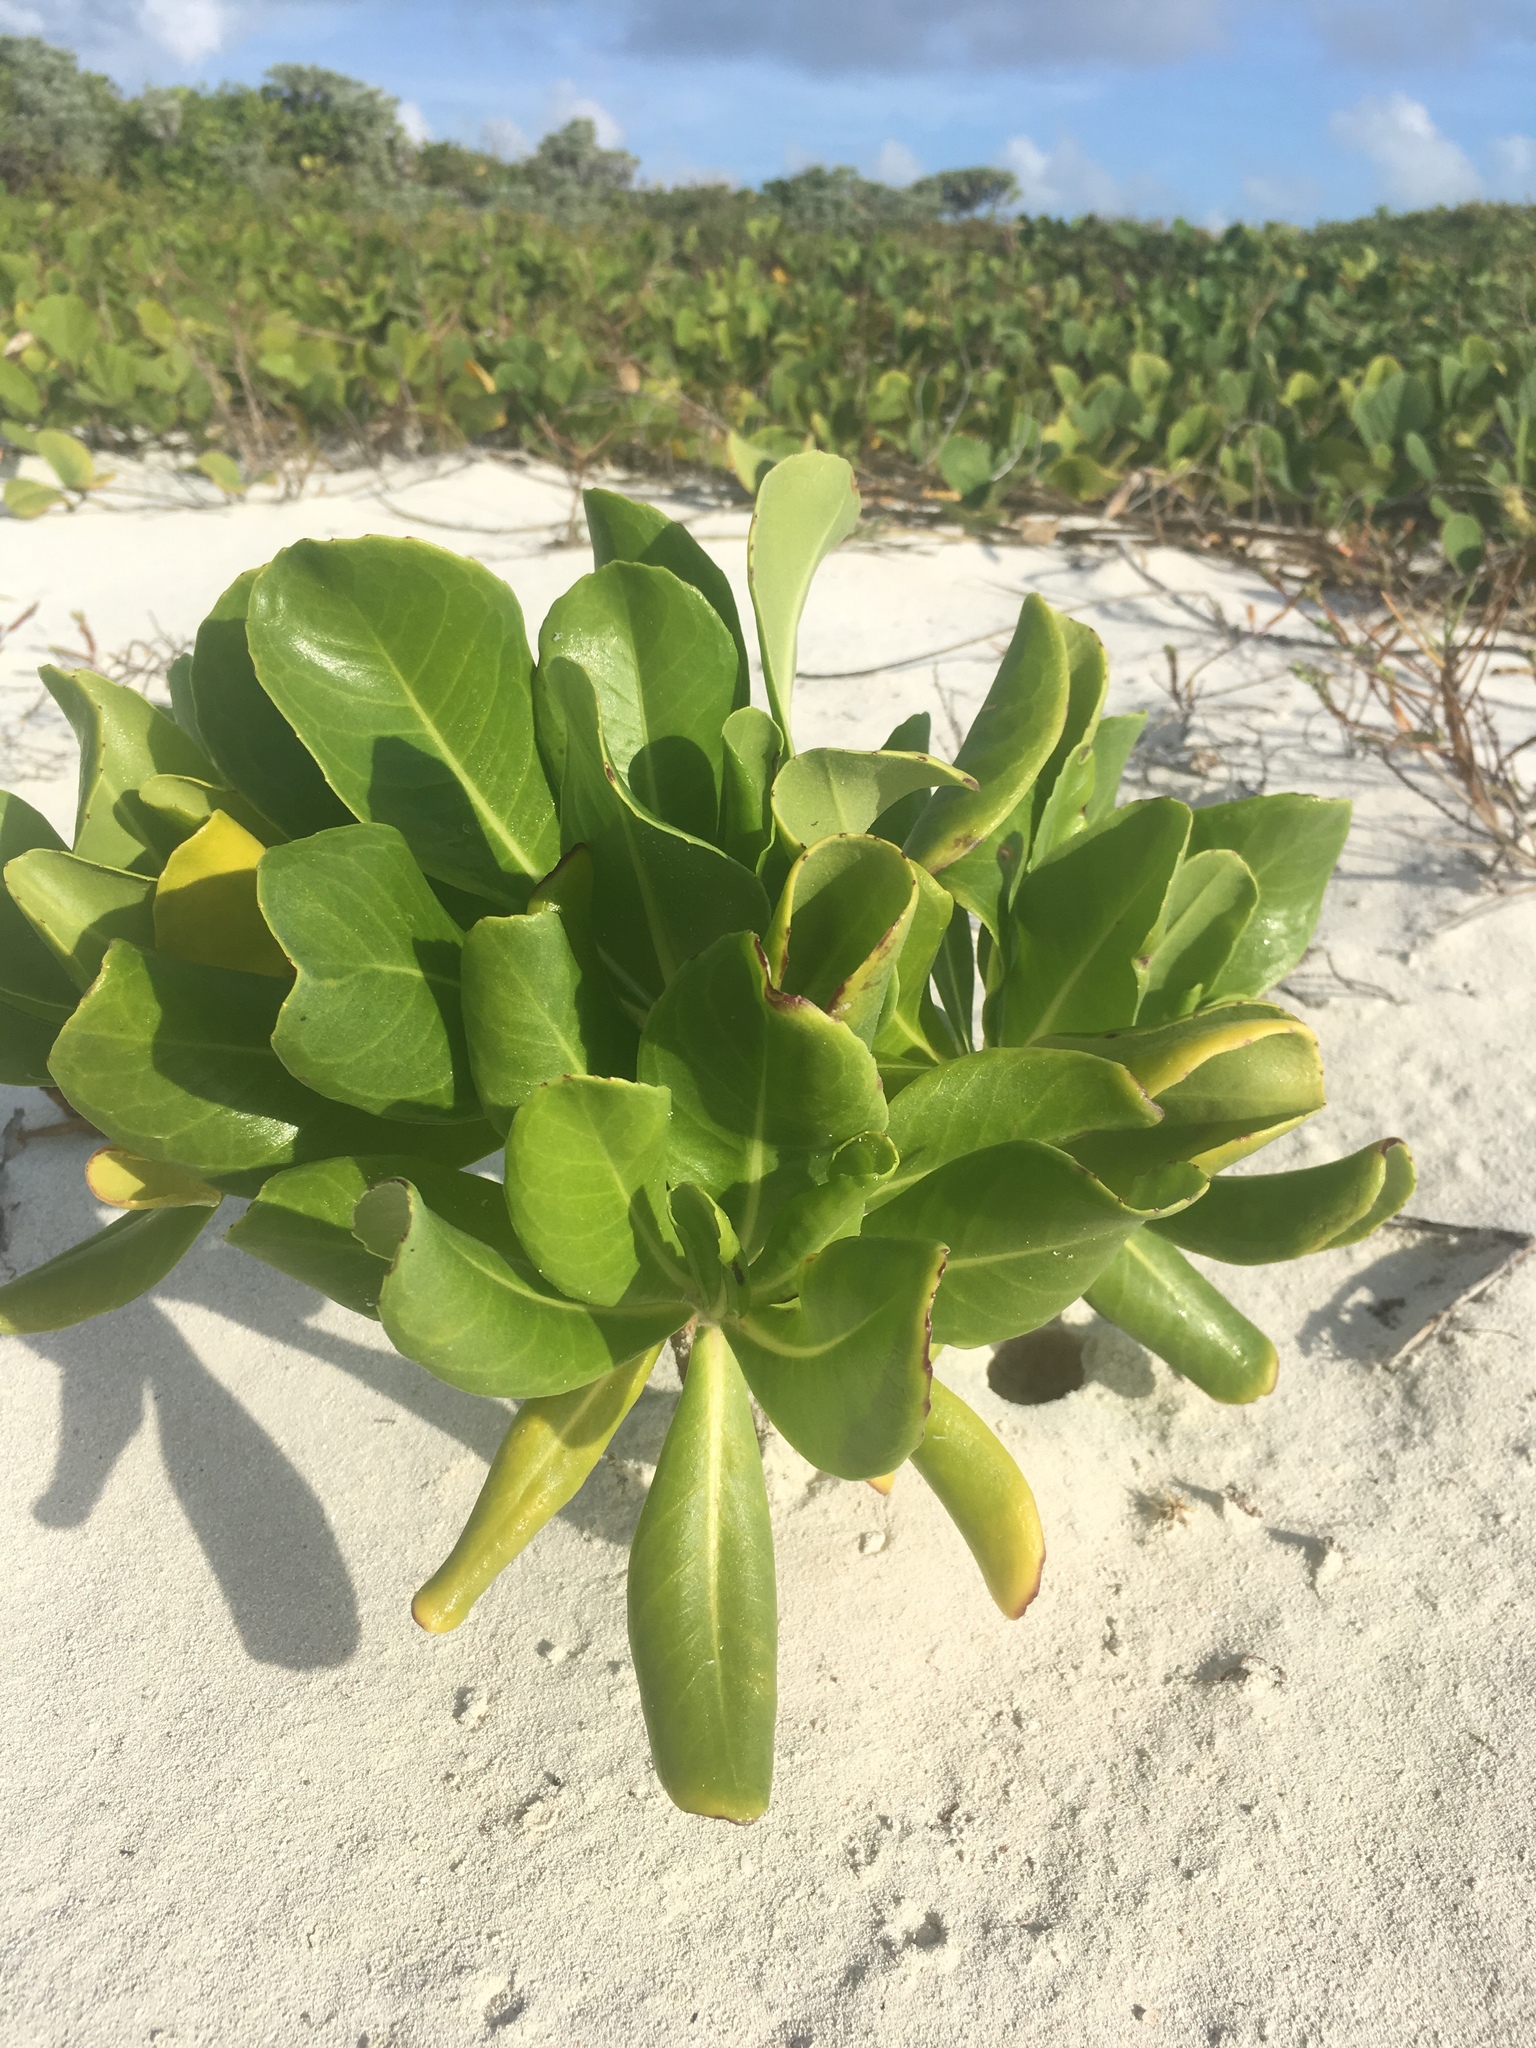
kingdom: Plantae
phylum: Tracheophyta
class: Magnoliopsida
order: Asterales
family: Goodeniaceae
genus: Scaevola
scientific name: Scaevola taccada
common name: Sea lettucetree
